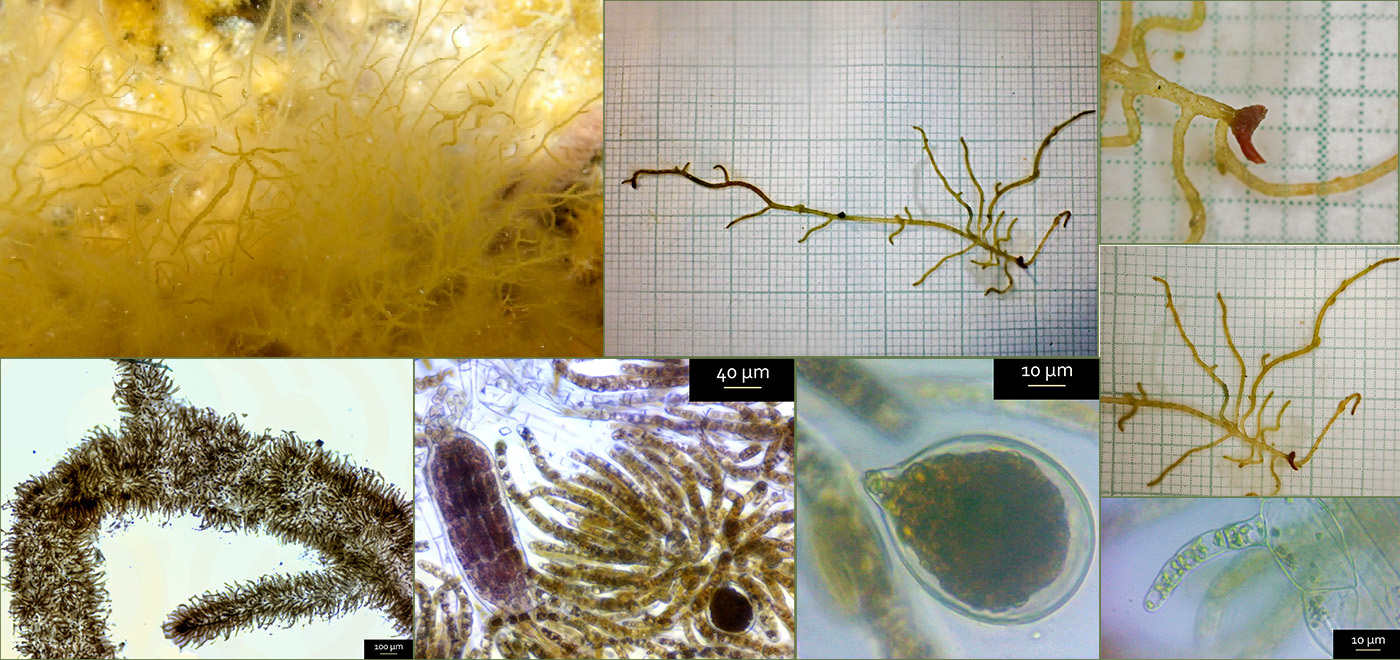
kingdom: Chromista
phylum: Ochrophyta
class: Phaeophyceae
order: Ectocarpales
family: Chordariaceae
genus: Mesogloia
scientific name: Mesogloia vermiculata
